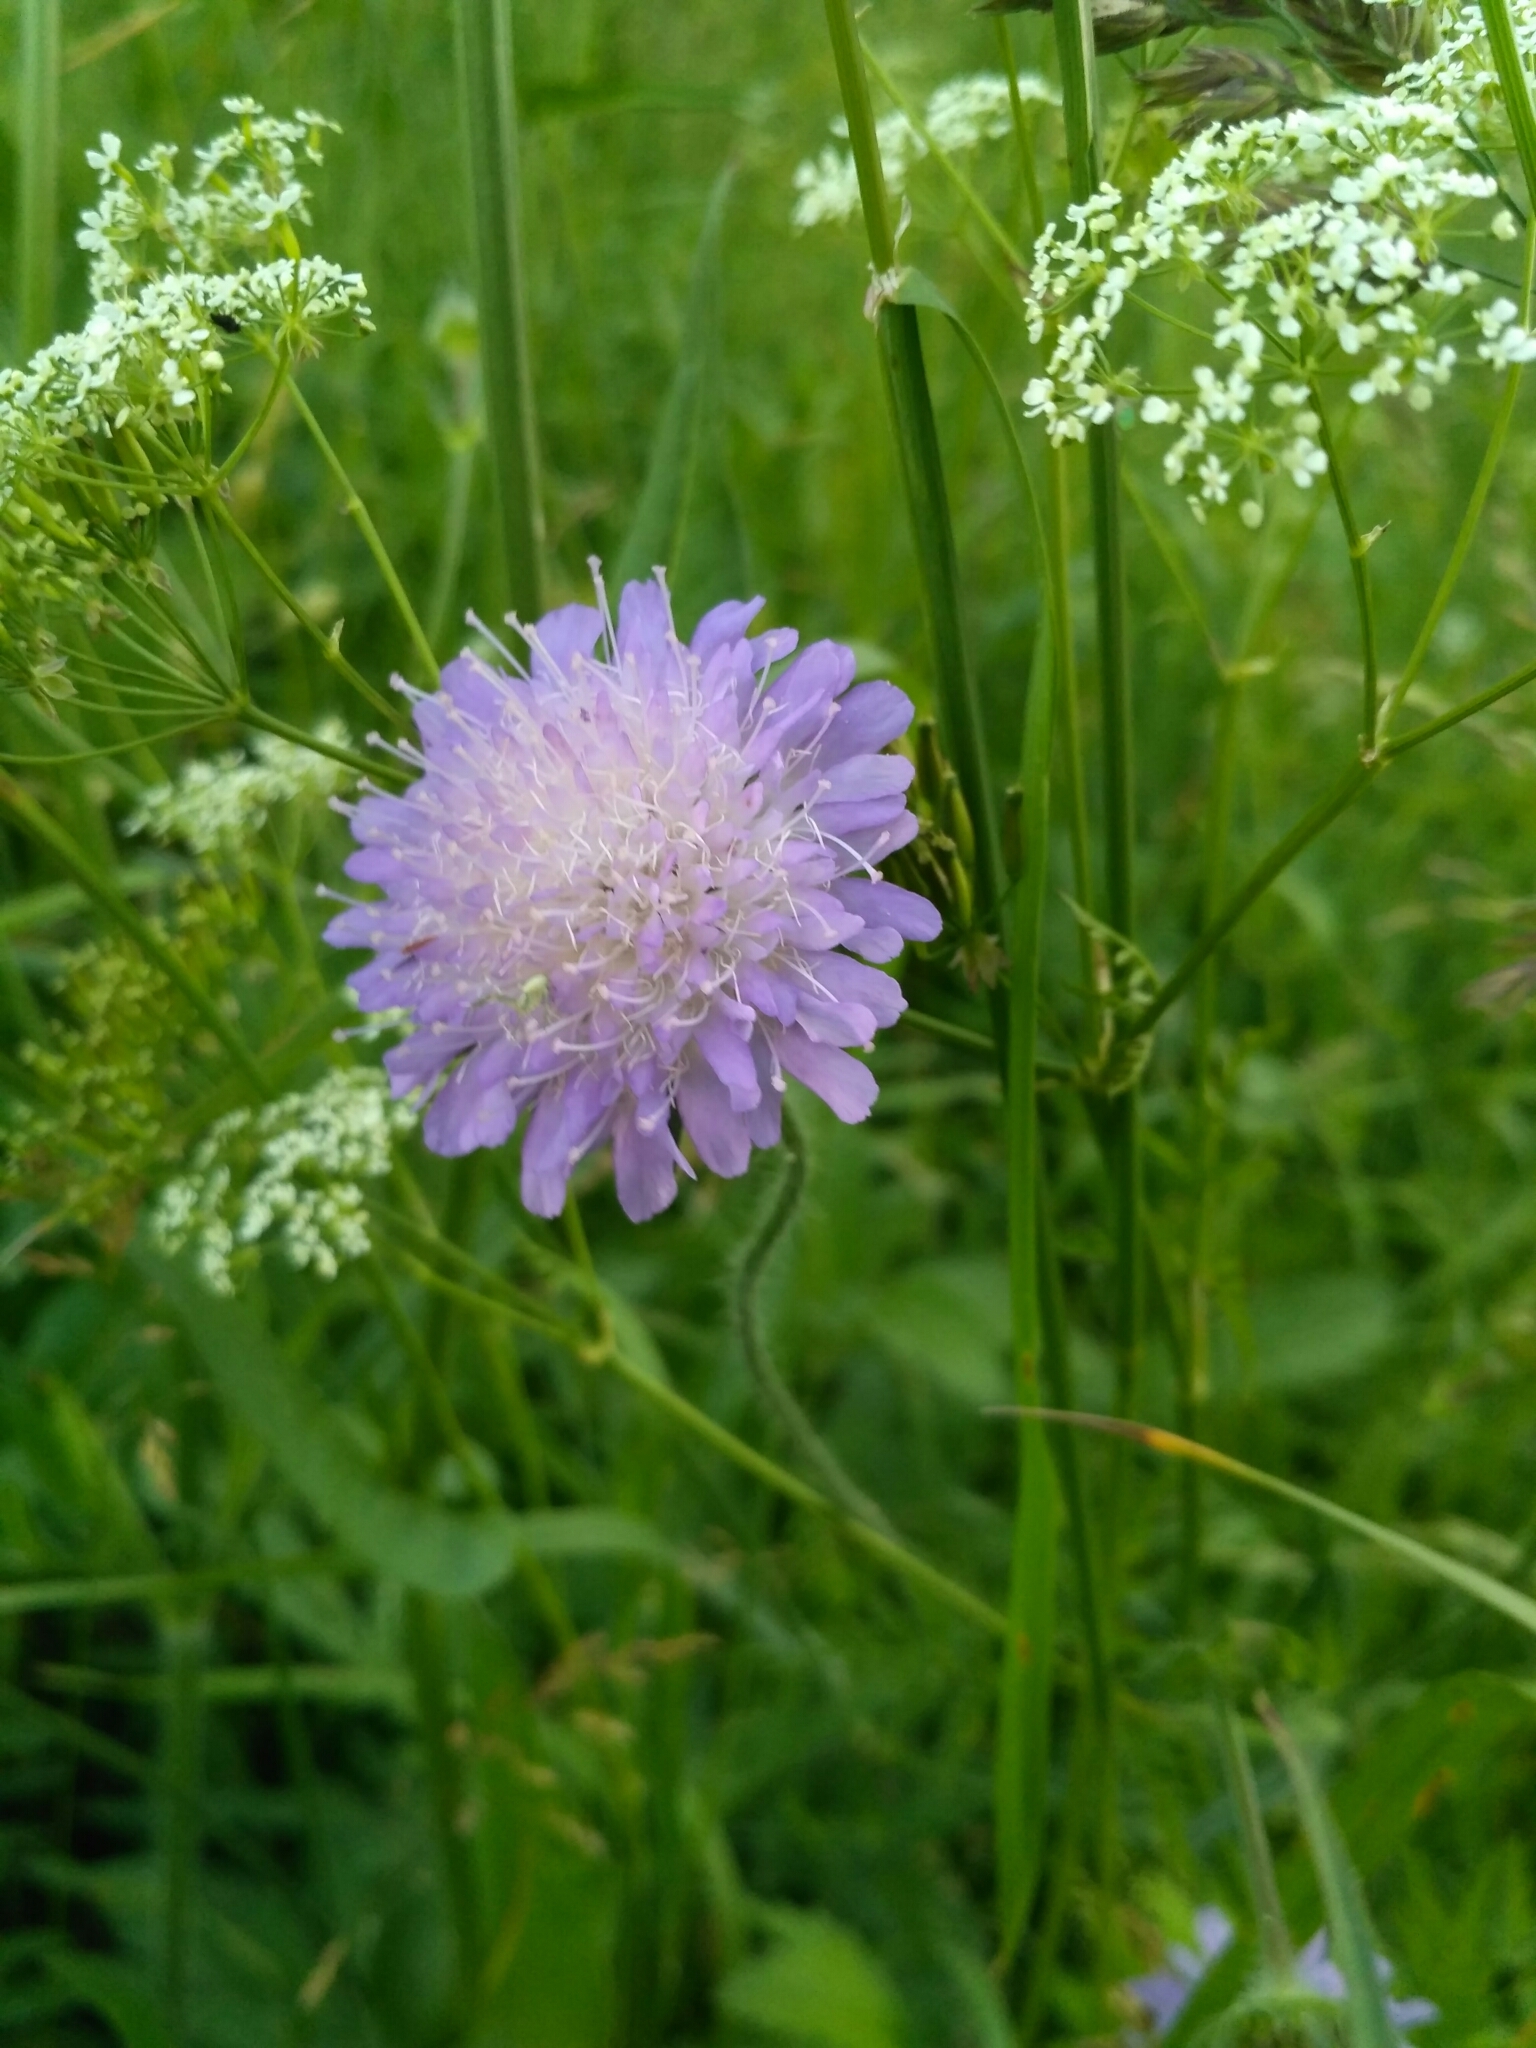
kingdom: Plantae
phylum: Tracheophyta
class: Magnoliopsida
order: Dipsacales
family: Caprifoliaceae
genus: Knautia
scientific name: Knautia arvensis
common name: Field scabiosa
